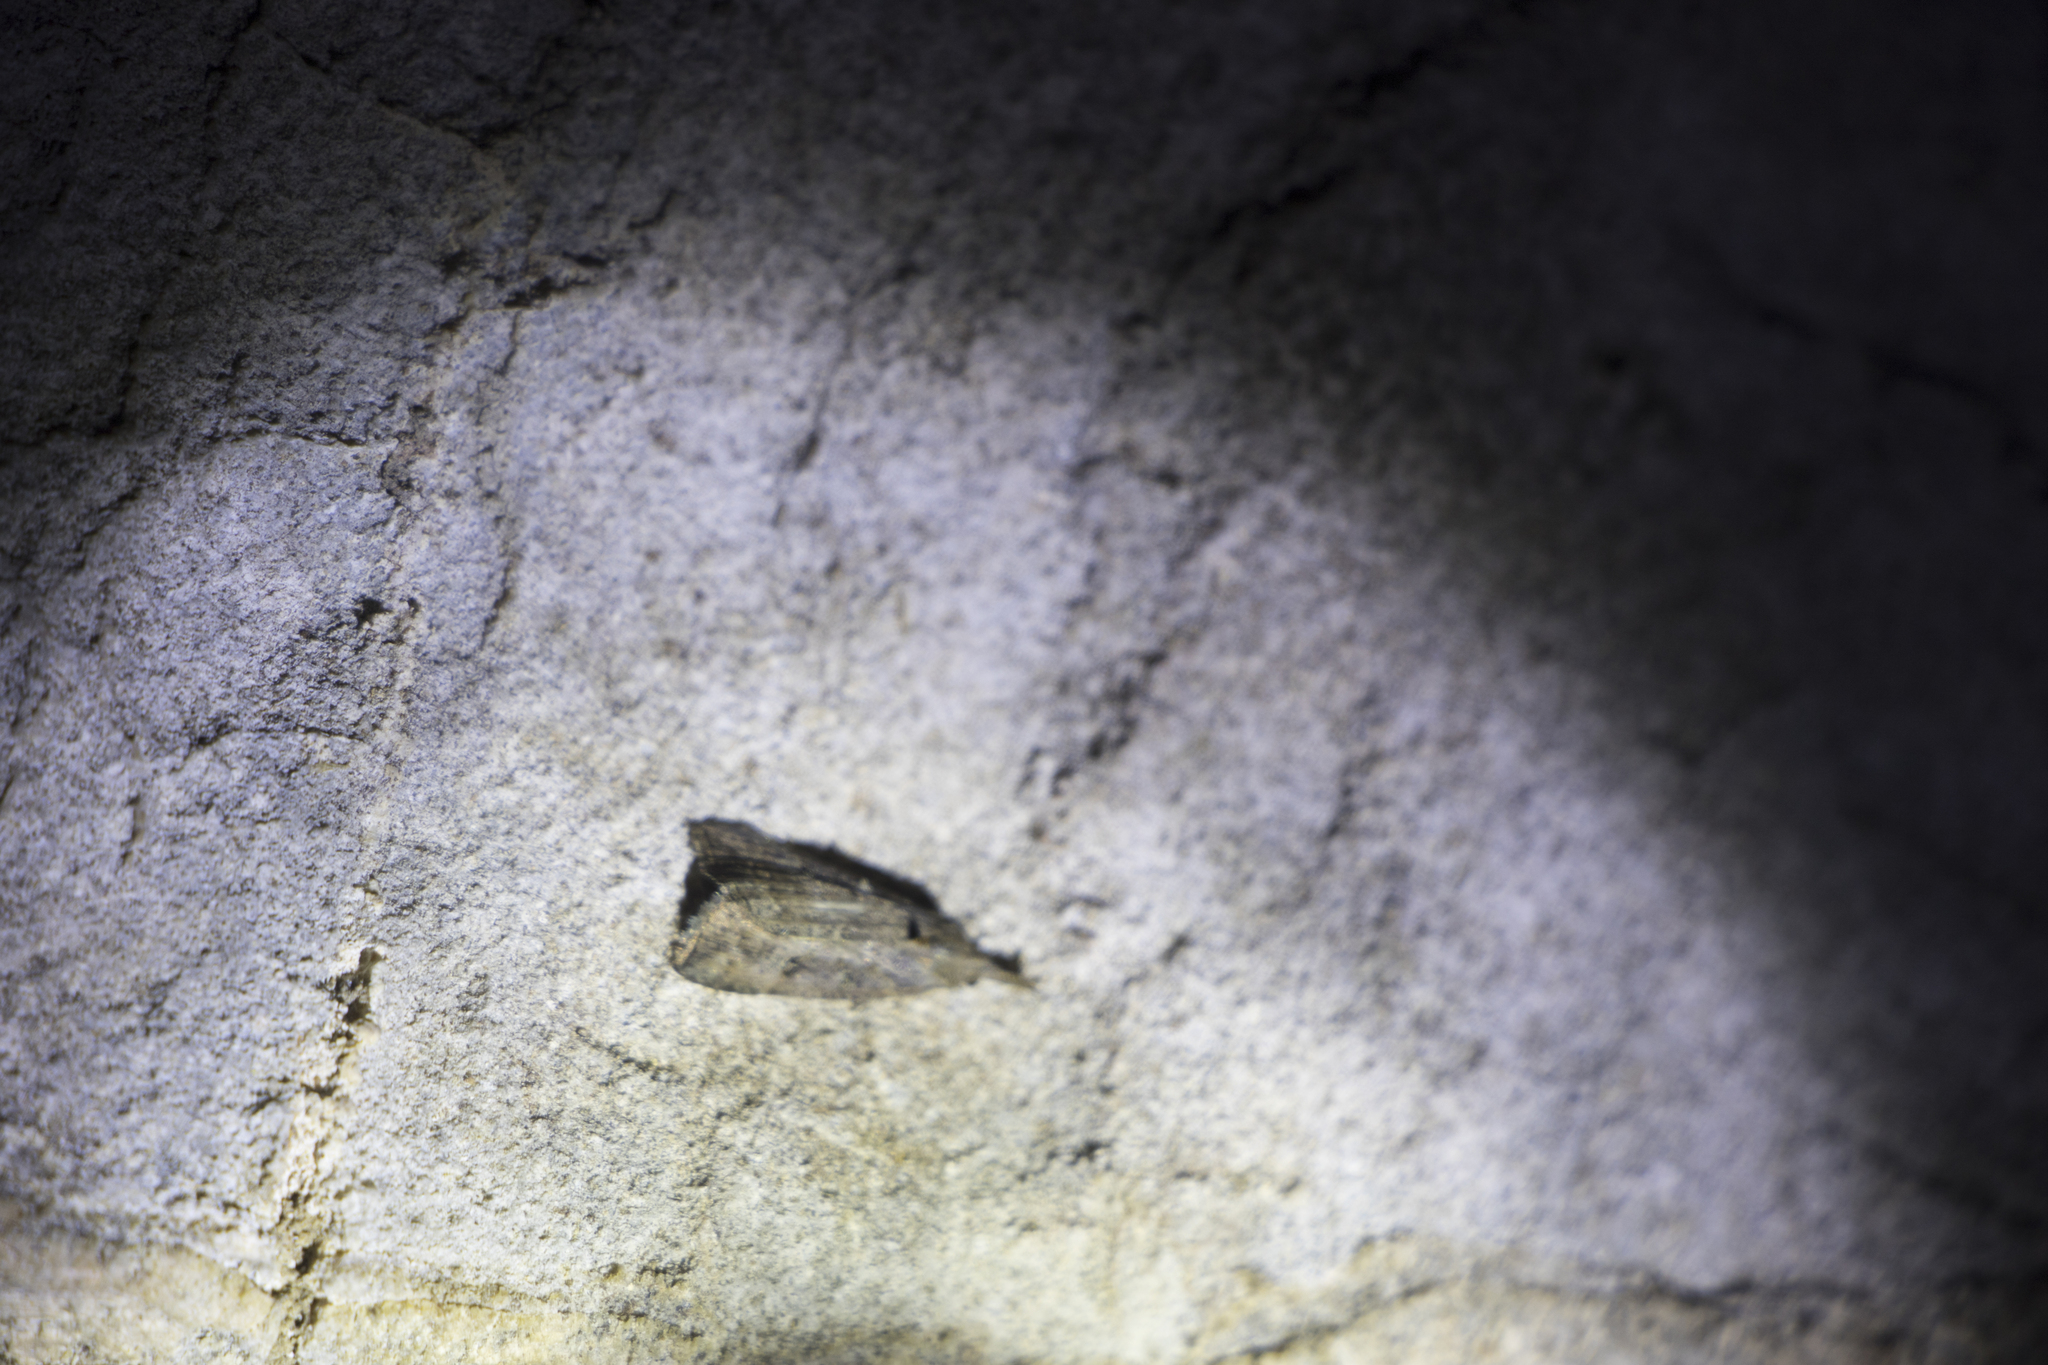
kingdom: Animalia
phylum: Arthropoda
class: Insecta
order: Lepidoptera
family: Erebidae
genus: Hypena
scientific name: Hypena rostralis
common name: Buttoned snout
